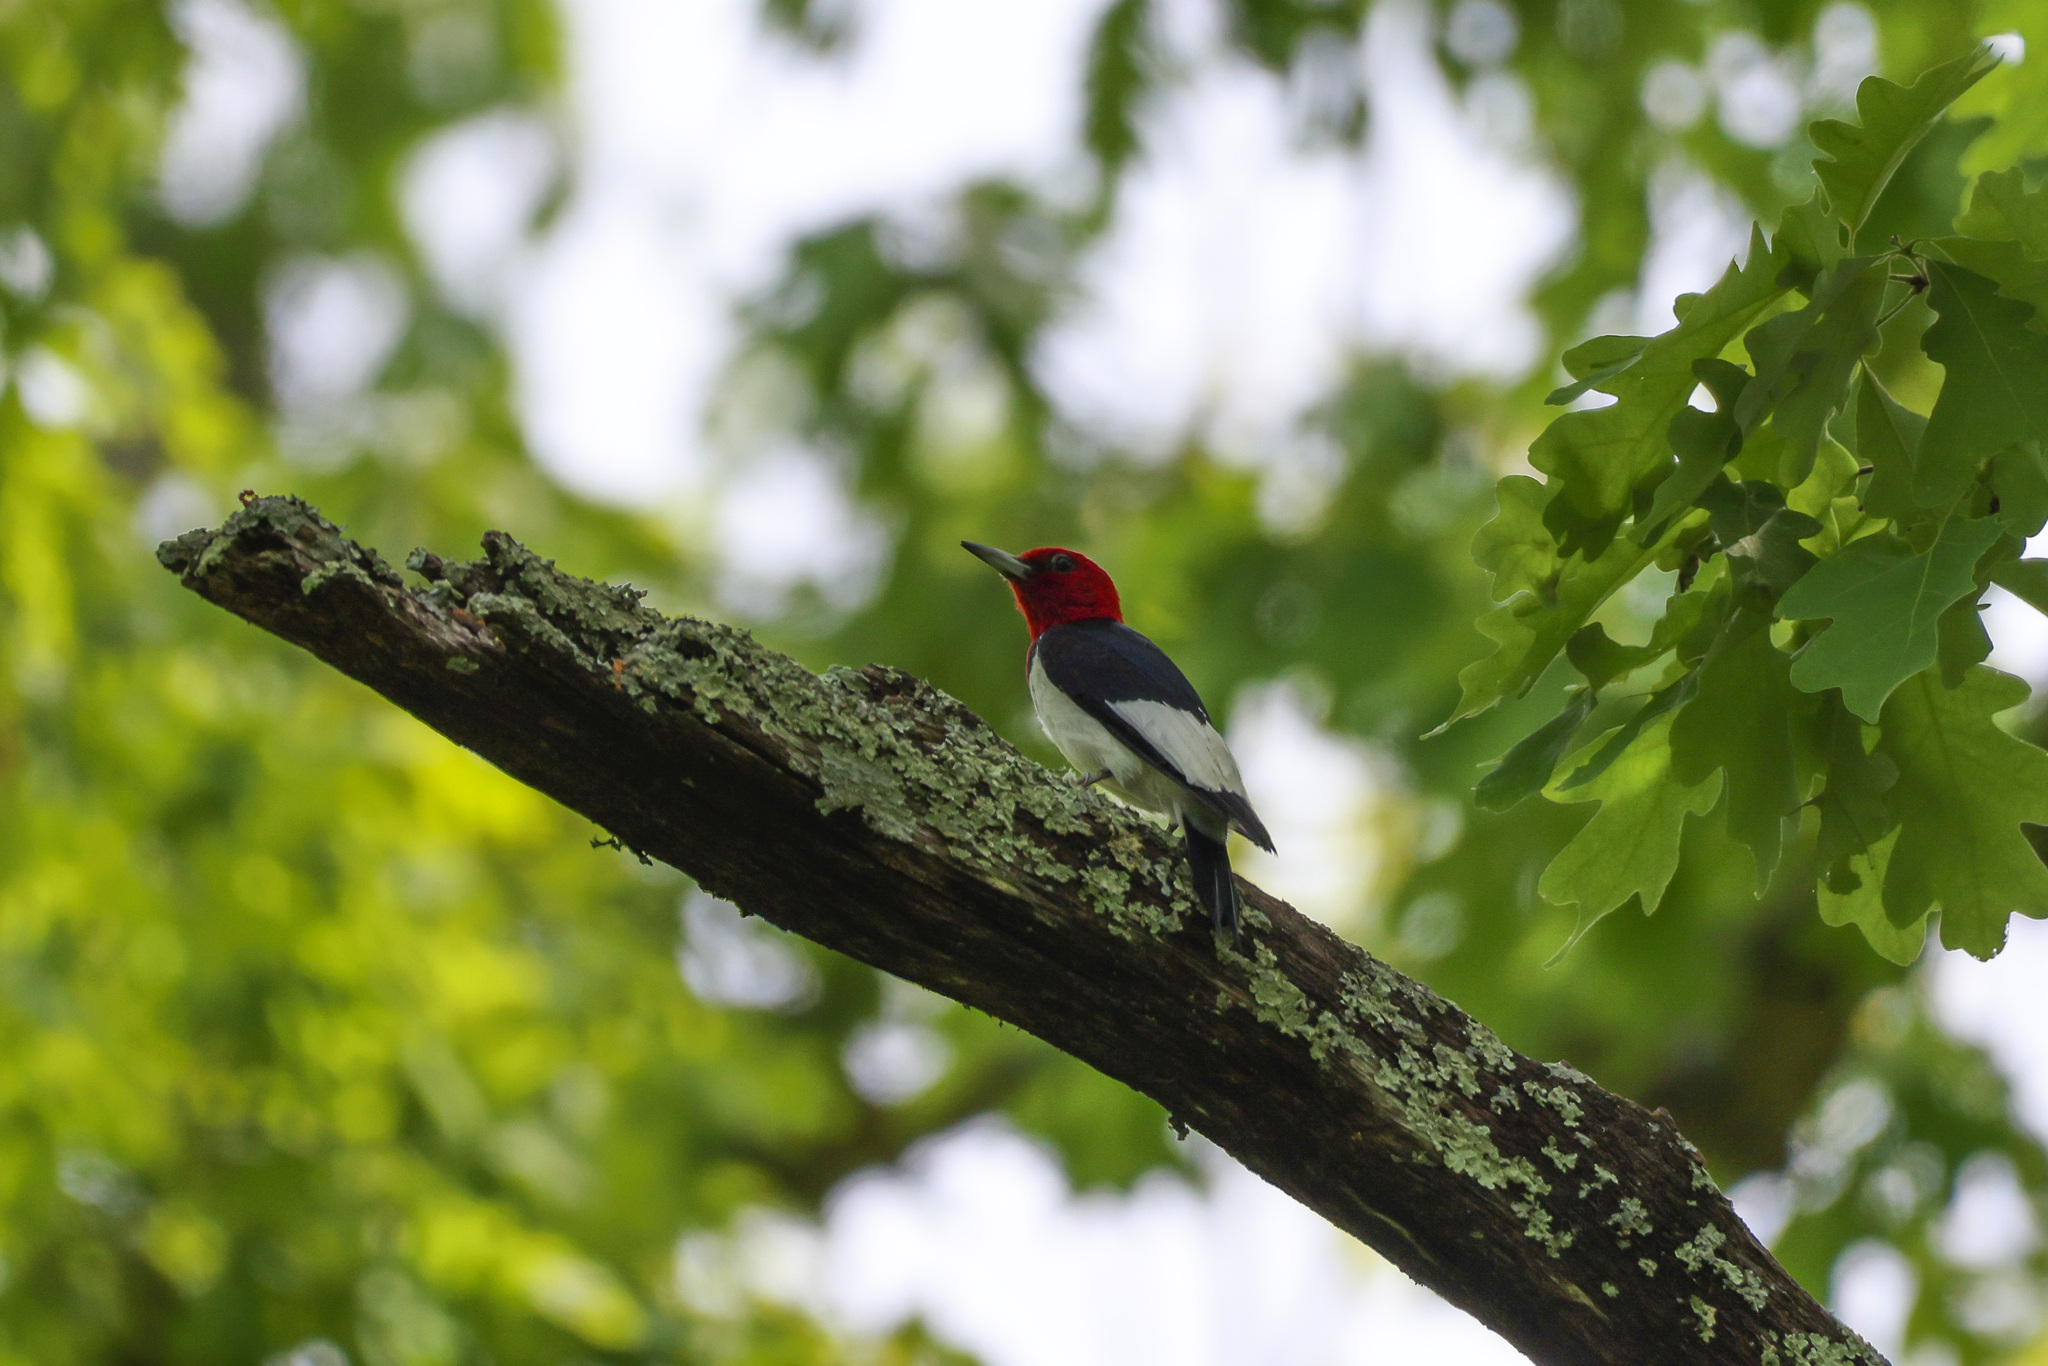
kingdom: Animalia
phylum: Chordata
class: Aves
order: Piciformes
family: Picidae
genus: Melanerpes
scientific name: Melanerpes erythrocephalus
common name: Red-headed woodpecker
